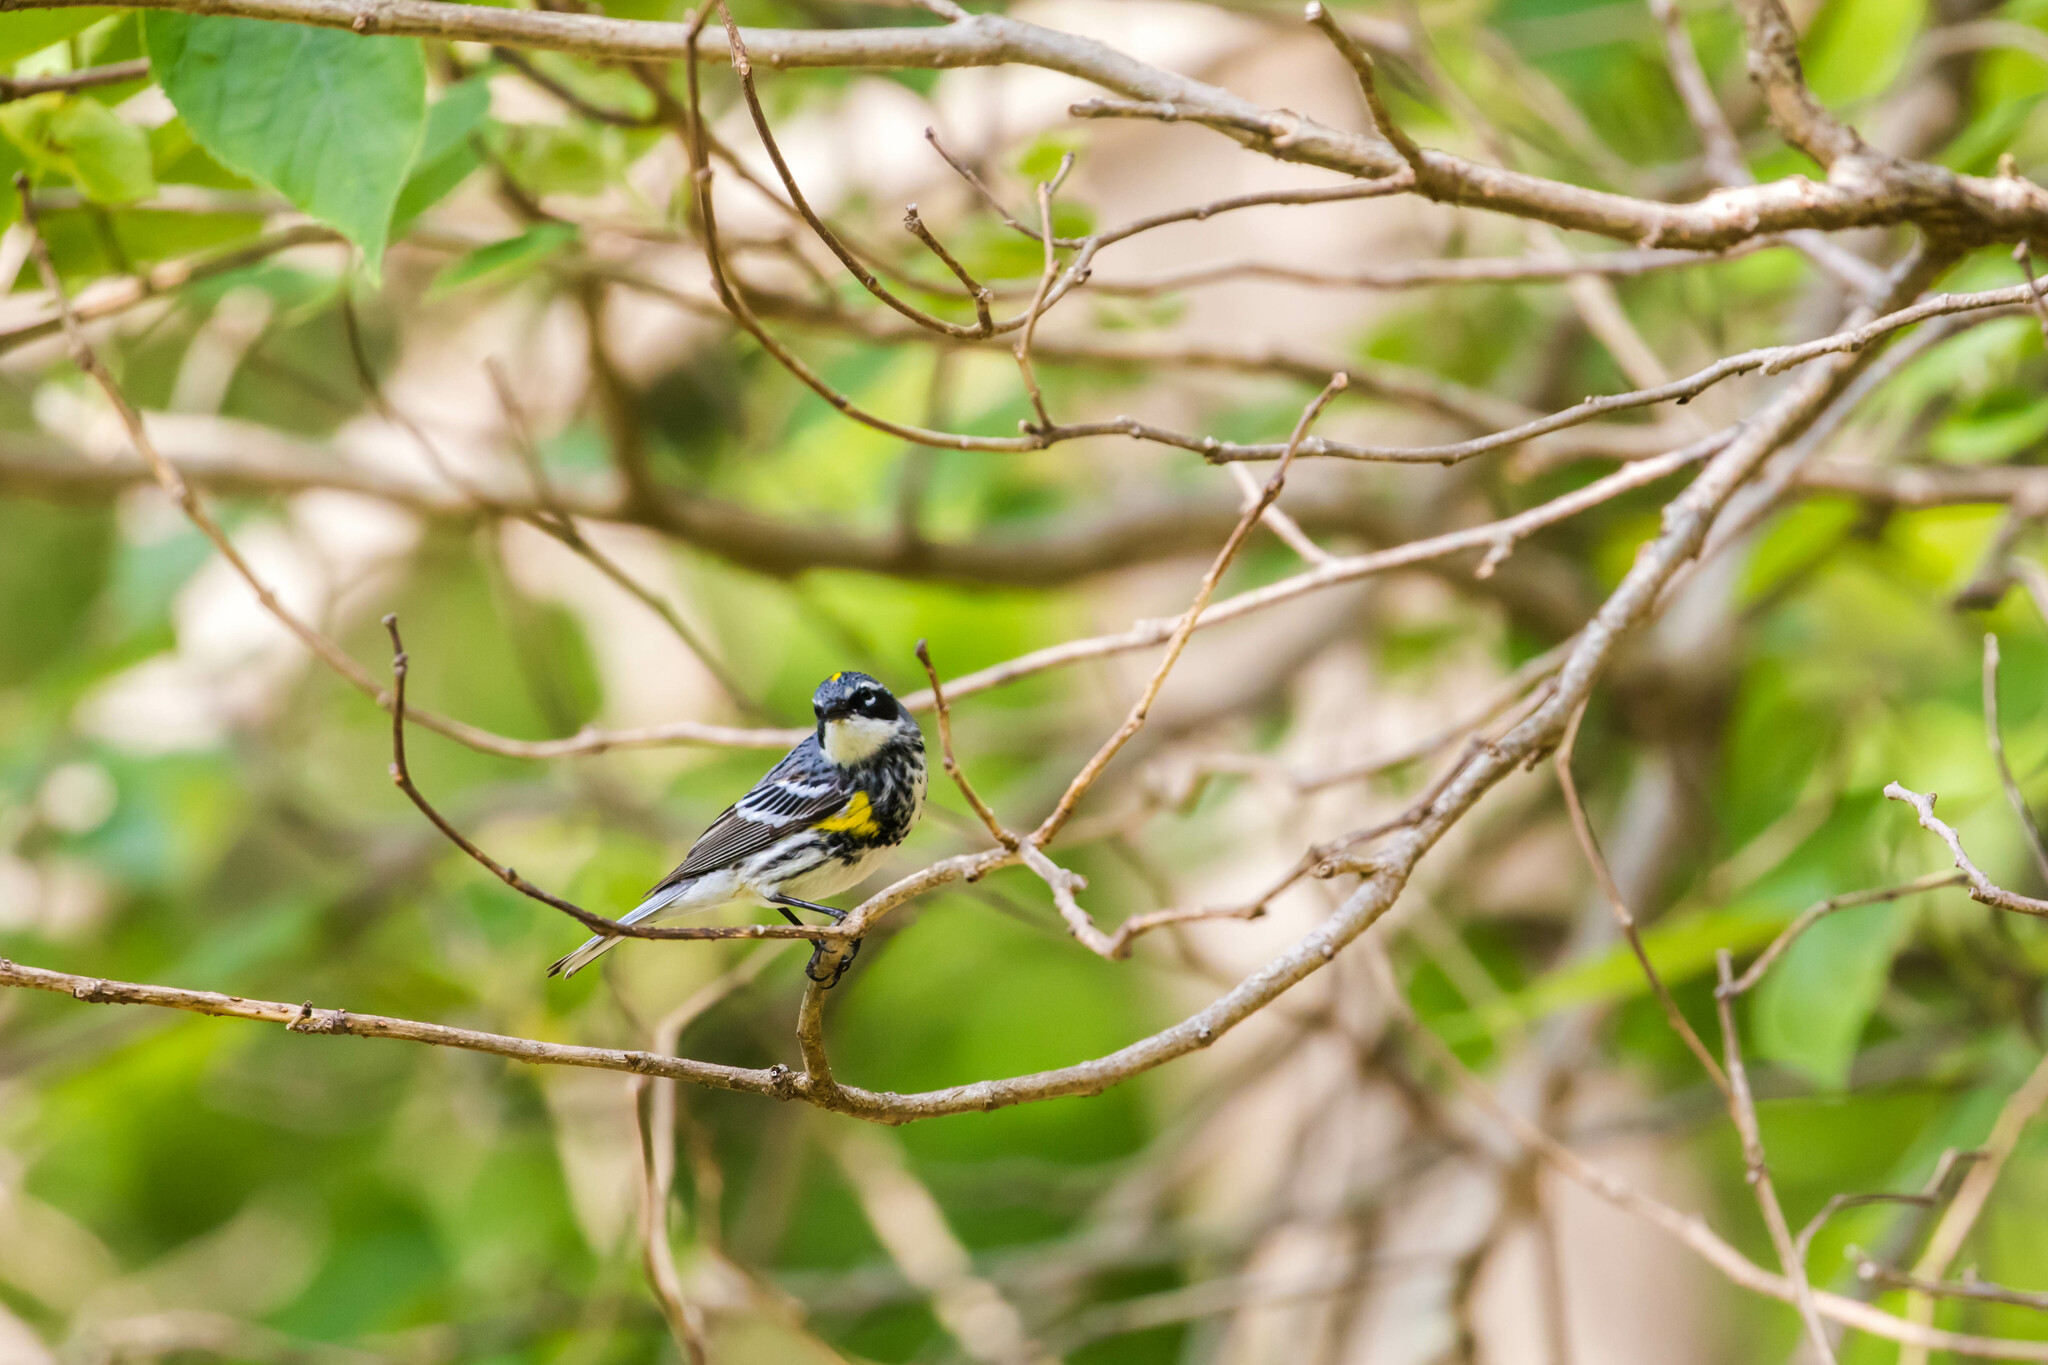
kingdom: Animalia
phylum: Chordata
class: Aves
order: Passeriformes
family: Parulidae
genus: Setophaga
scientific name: Setophaga coronata
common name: Myrtle warbler
